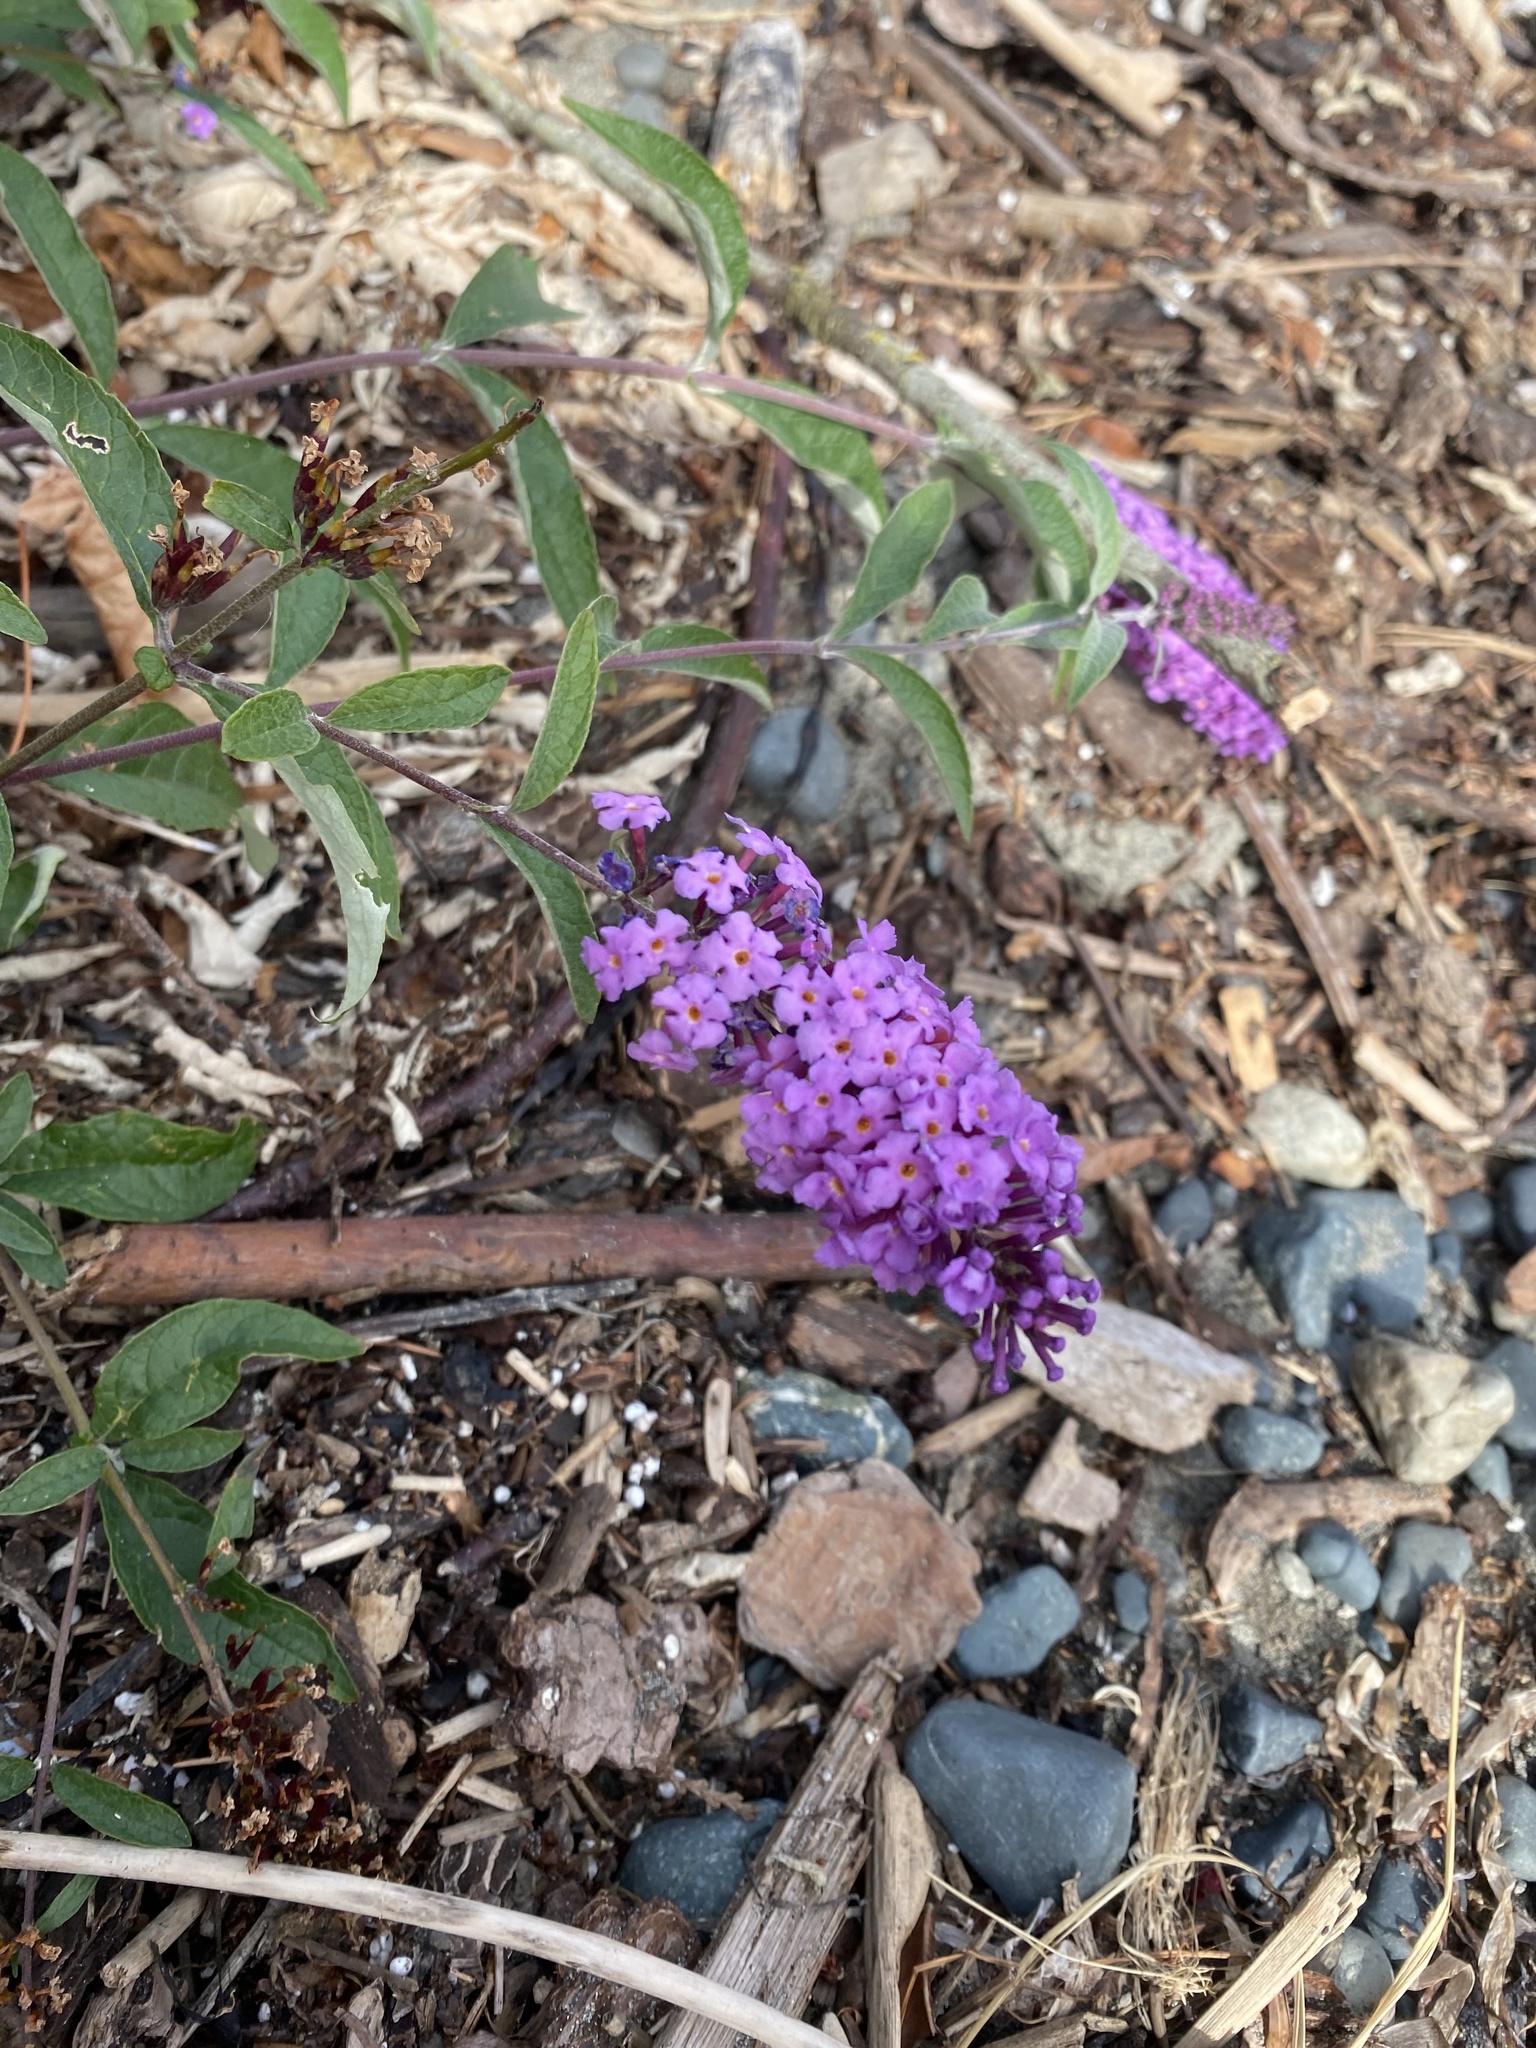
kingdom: Plantae
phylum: Tracheophyta
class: Magnoliopsida
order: Lamiales
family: Scrophulariaceae
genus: Buddleja
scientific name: Buddleja davidii
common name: Butterfly-bush
